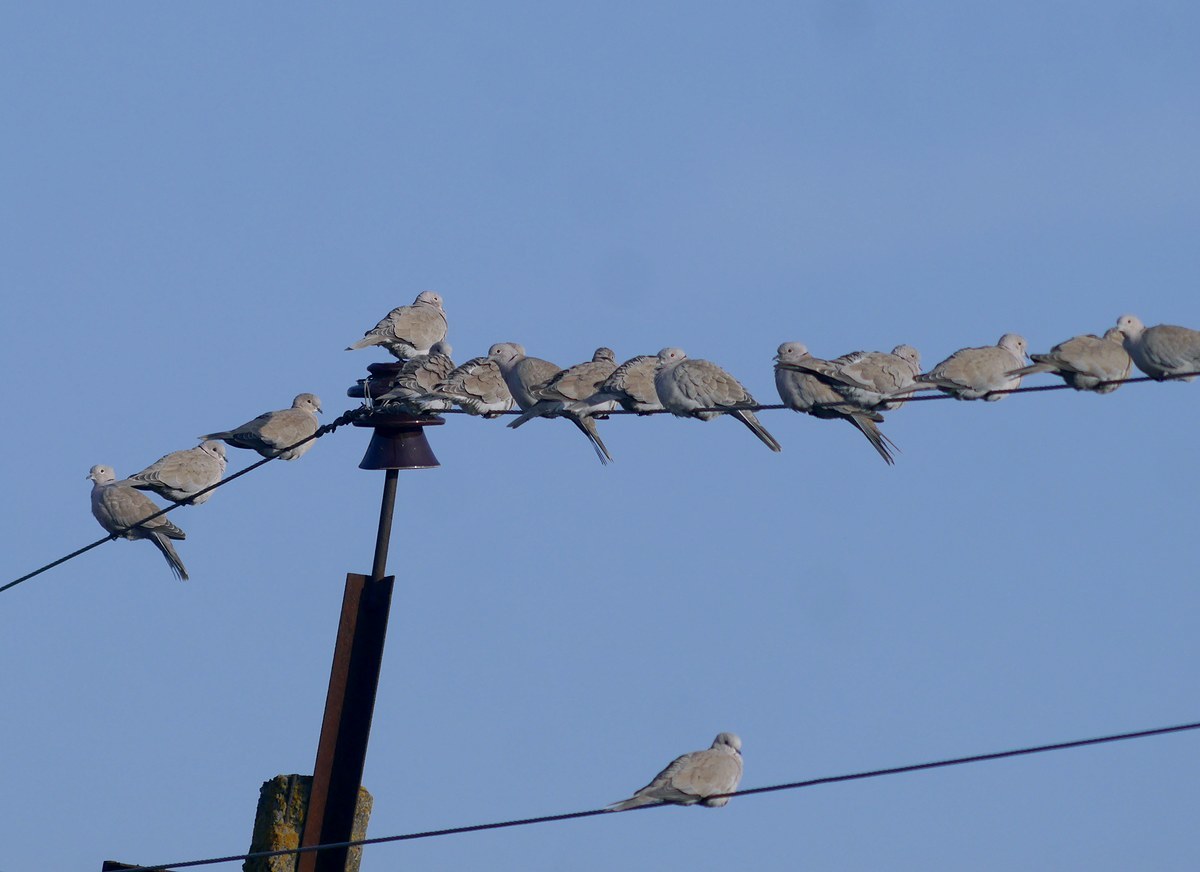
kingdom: Animalia
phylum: Chordata
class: Aves
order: Columbiformes
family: Columbidae
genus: Streptopelia
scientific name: Streptopelia decaocto
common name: Eurasian collared dove
